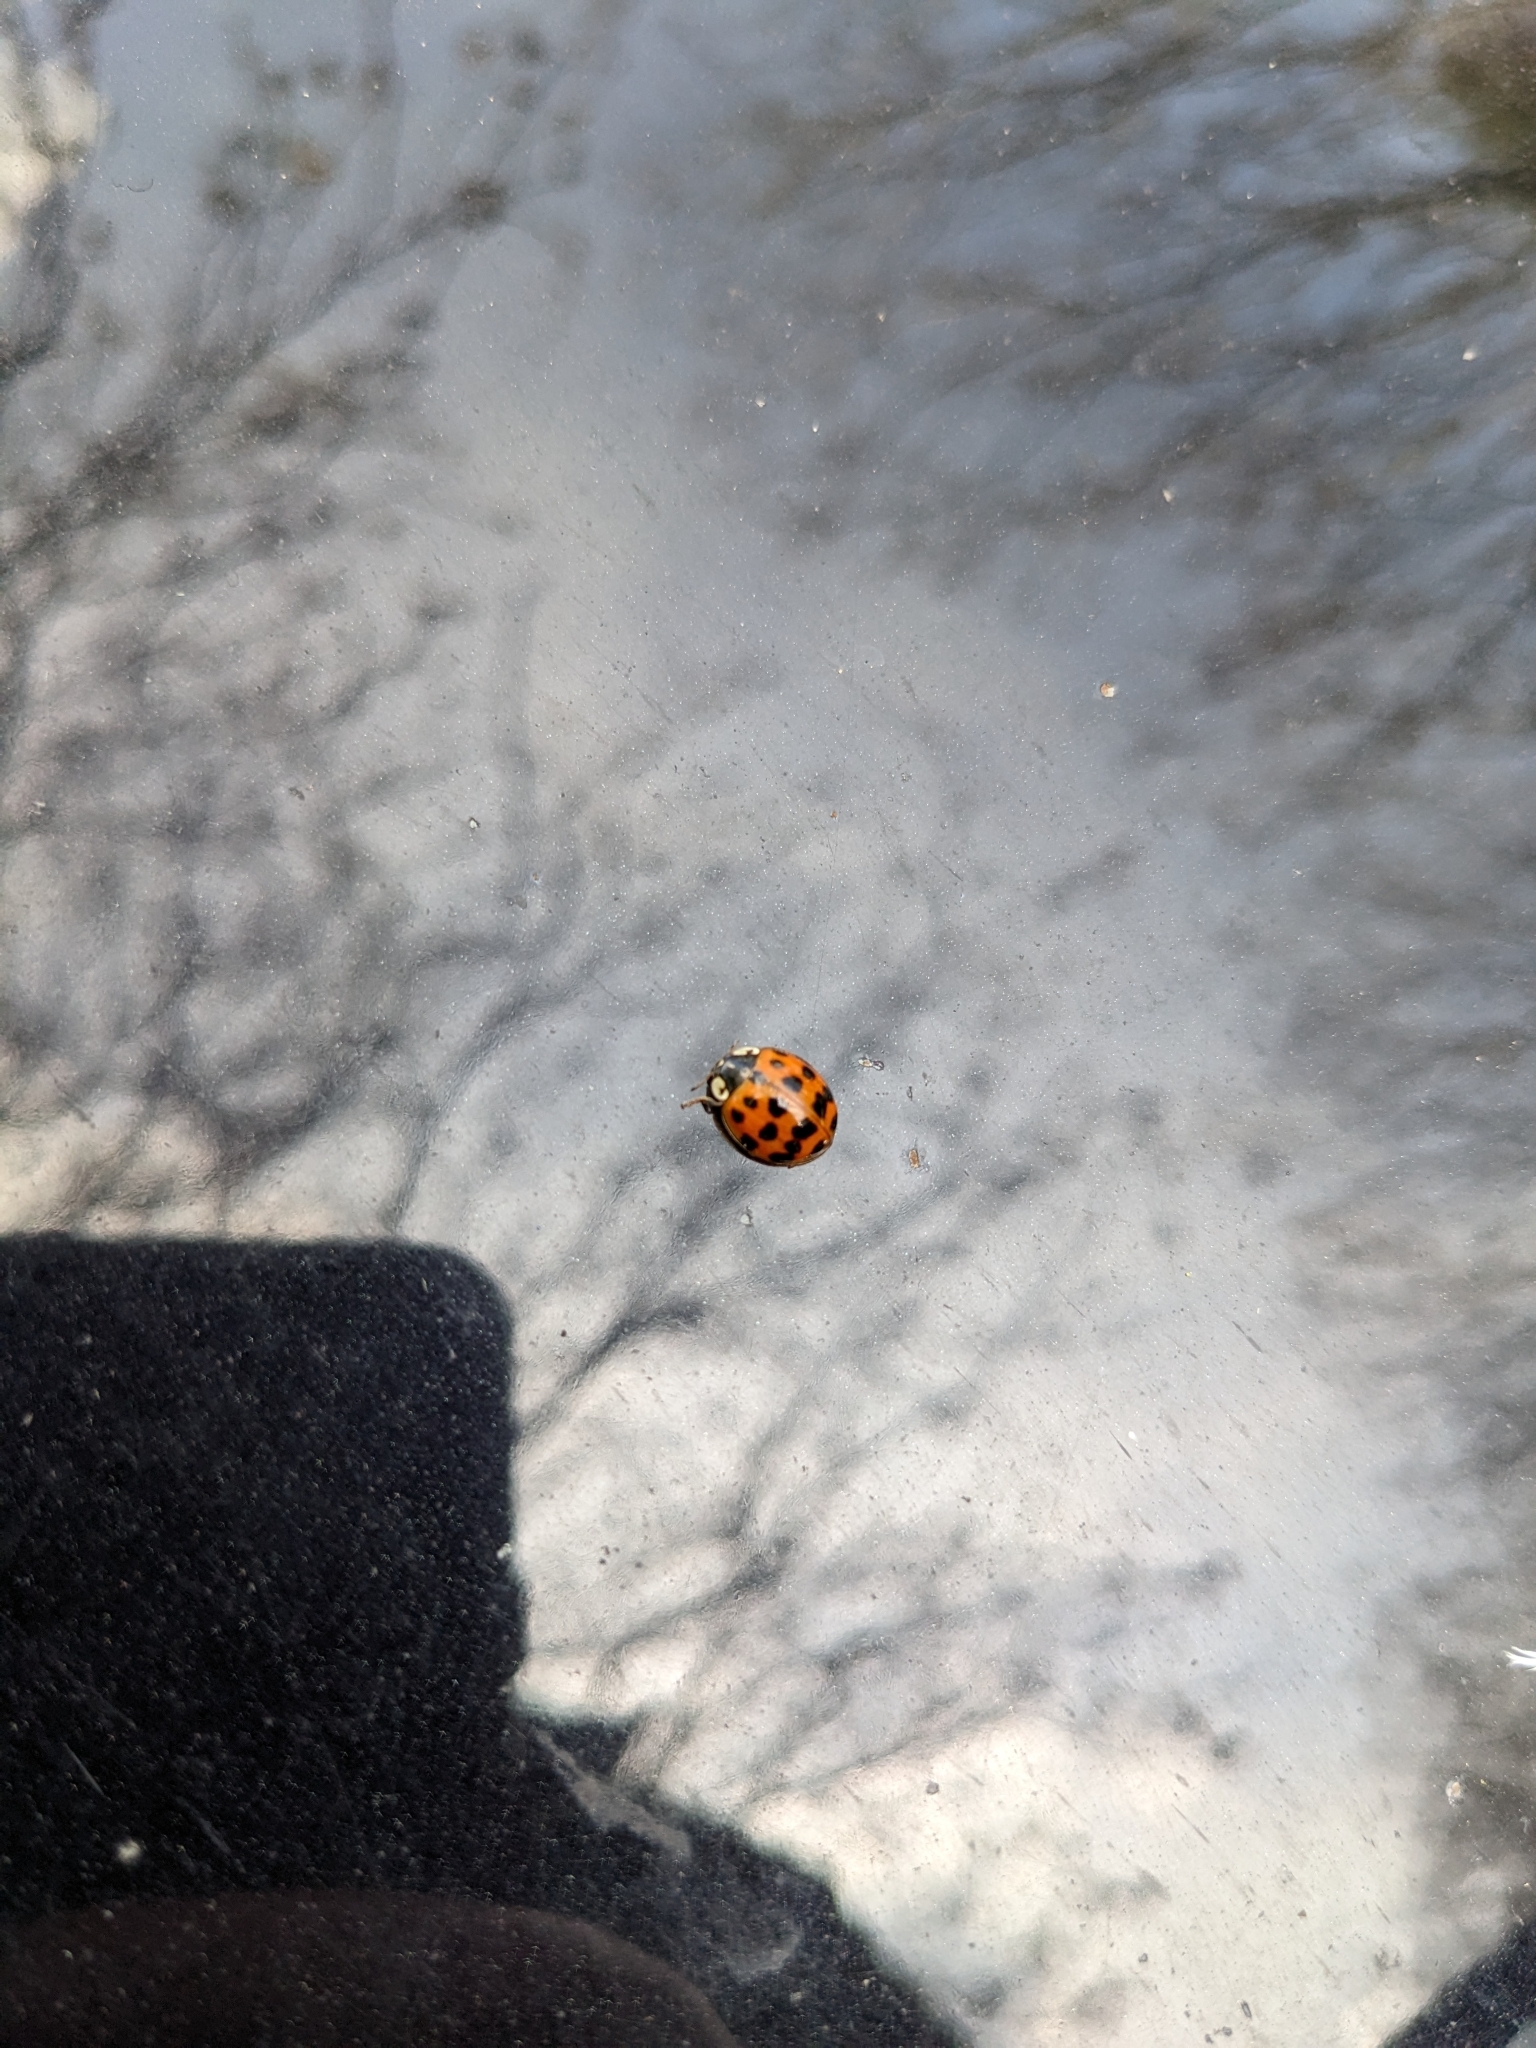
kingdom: Animalia
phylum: Arthropoda
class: Insecta
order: Coleoptera
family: Coccinellidae
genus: Harmonia
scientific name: Harmonia axyridis
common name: Harlequin ladybird
